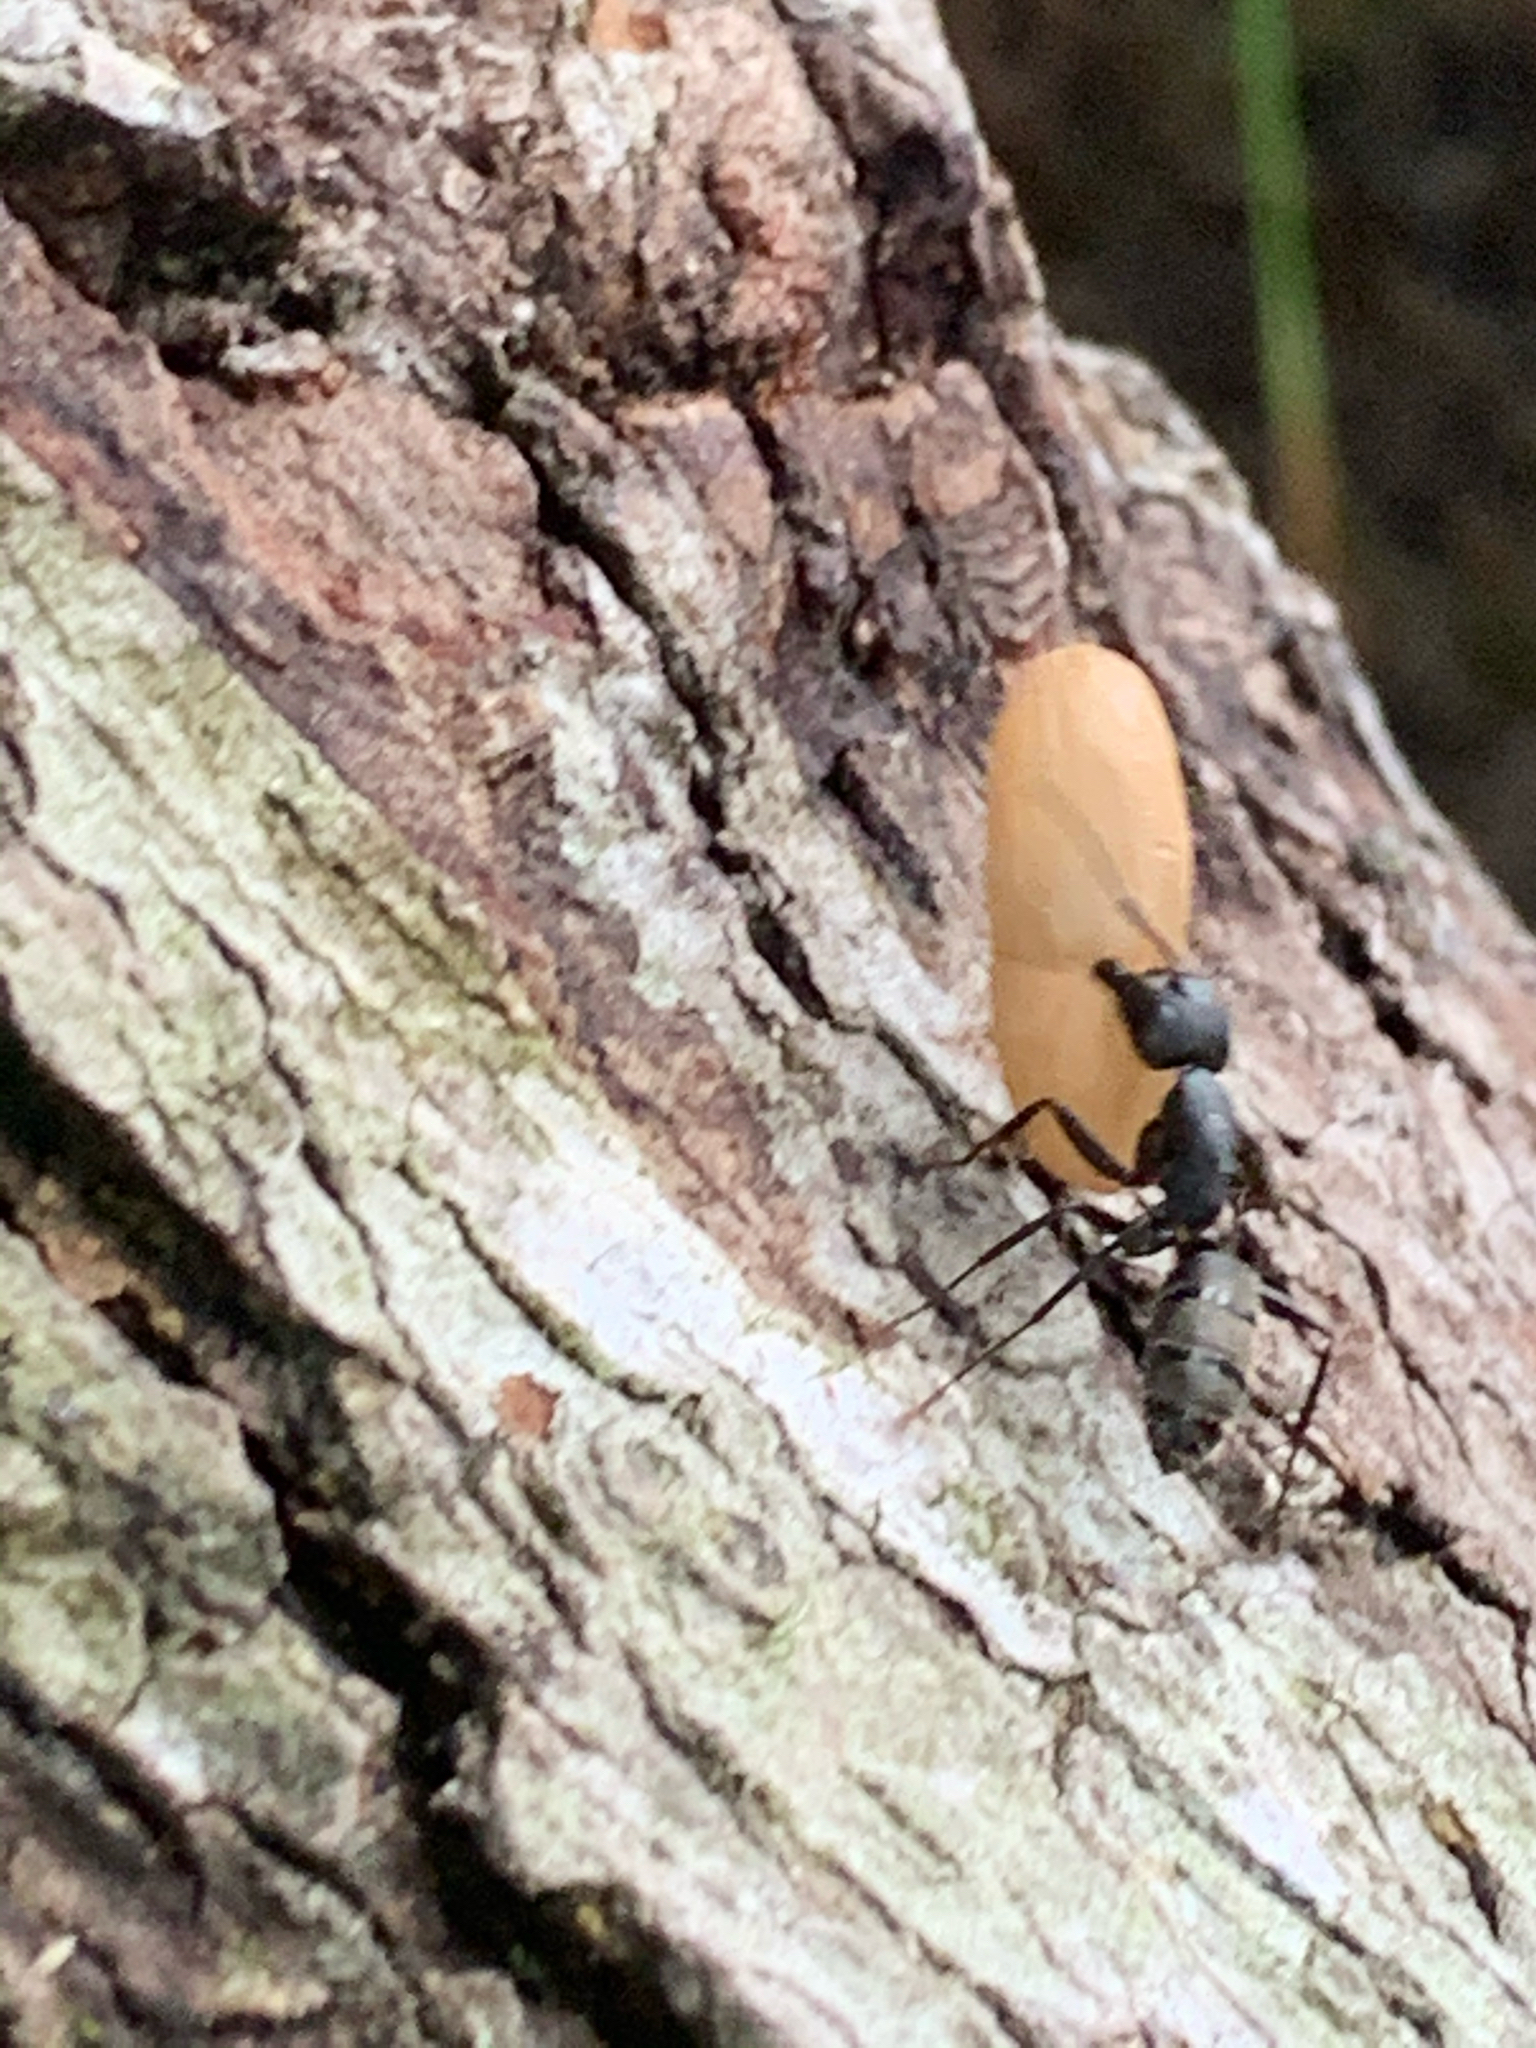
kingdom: Animalia
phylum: Arthropoda
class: Insecta
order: Hymenoptera
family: Formicidae
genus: Camponotus
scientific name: Camponotus pennsylvanicus
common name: Black carpenter ant
